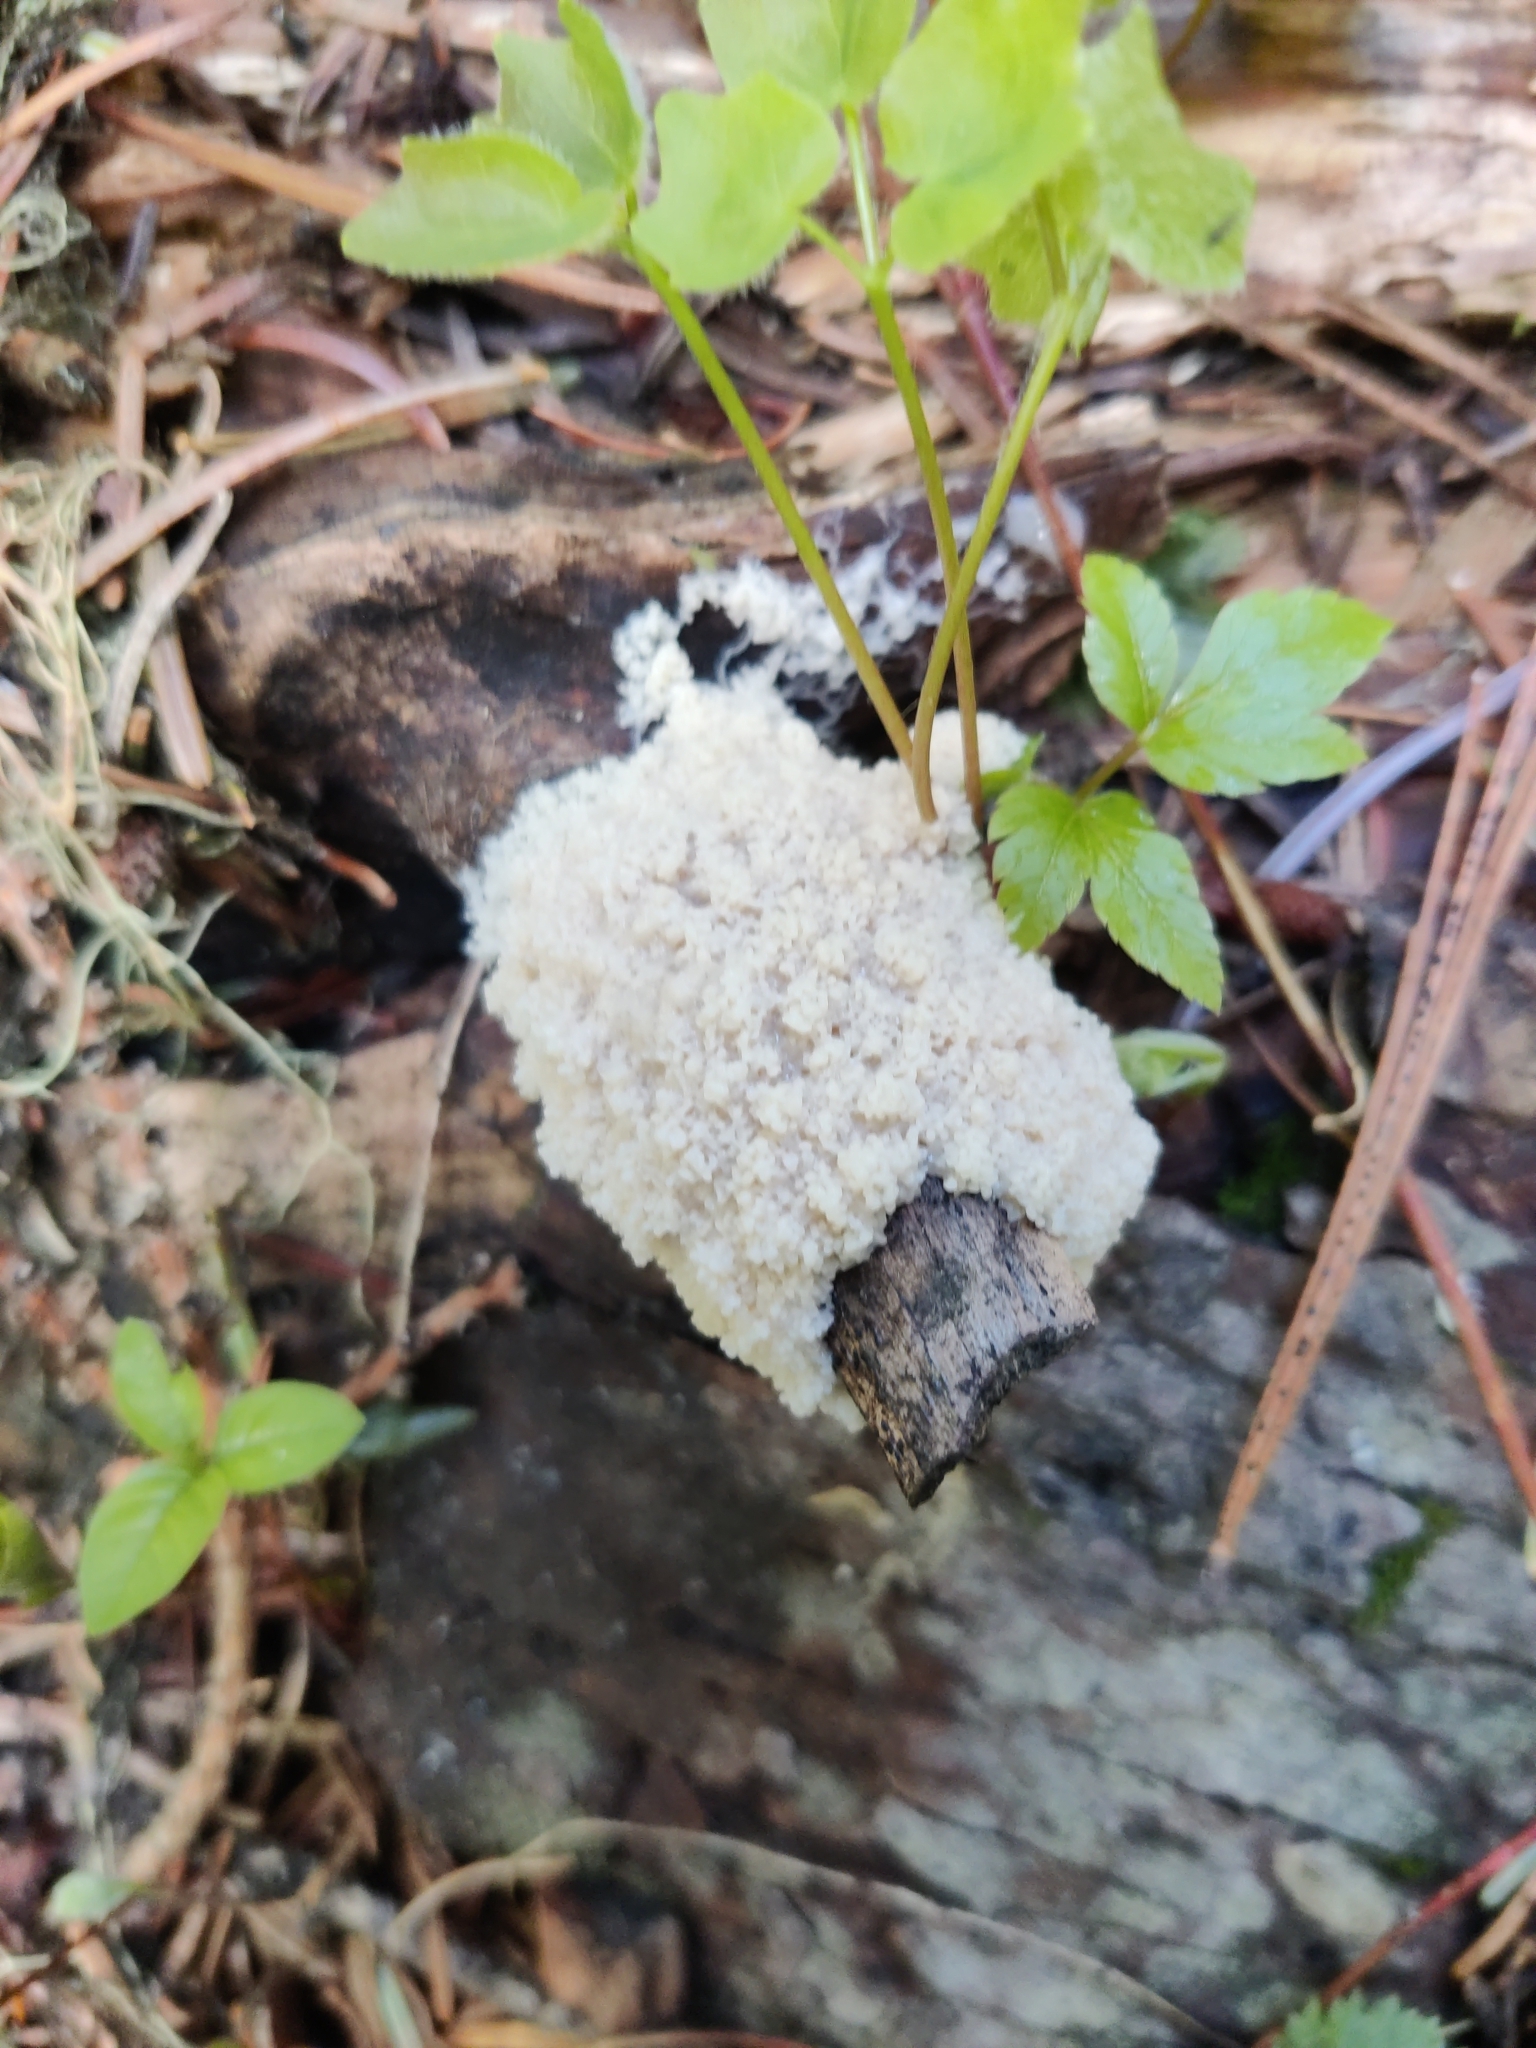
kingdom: Protozoa
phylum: Mycetozoa
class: Myxomycetes
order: Physarales
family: Physaraceae
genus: Didymium
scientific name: Didymium
